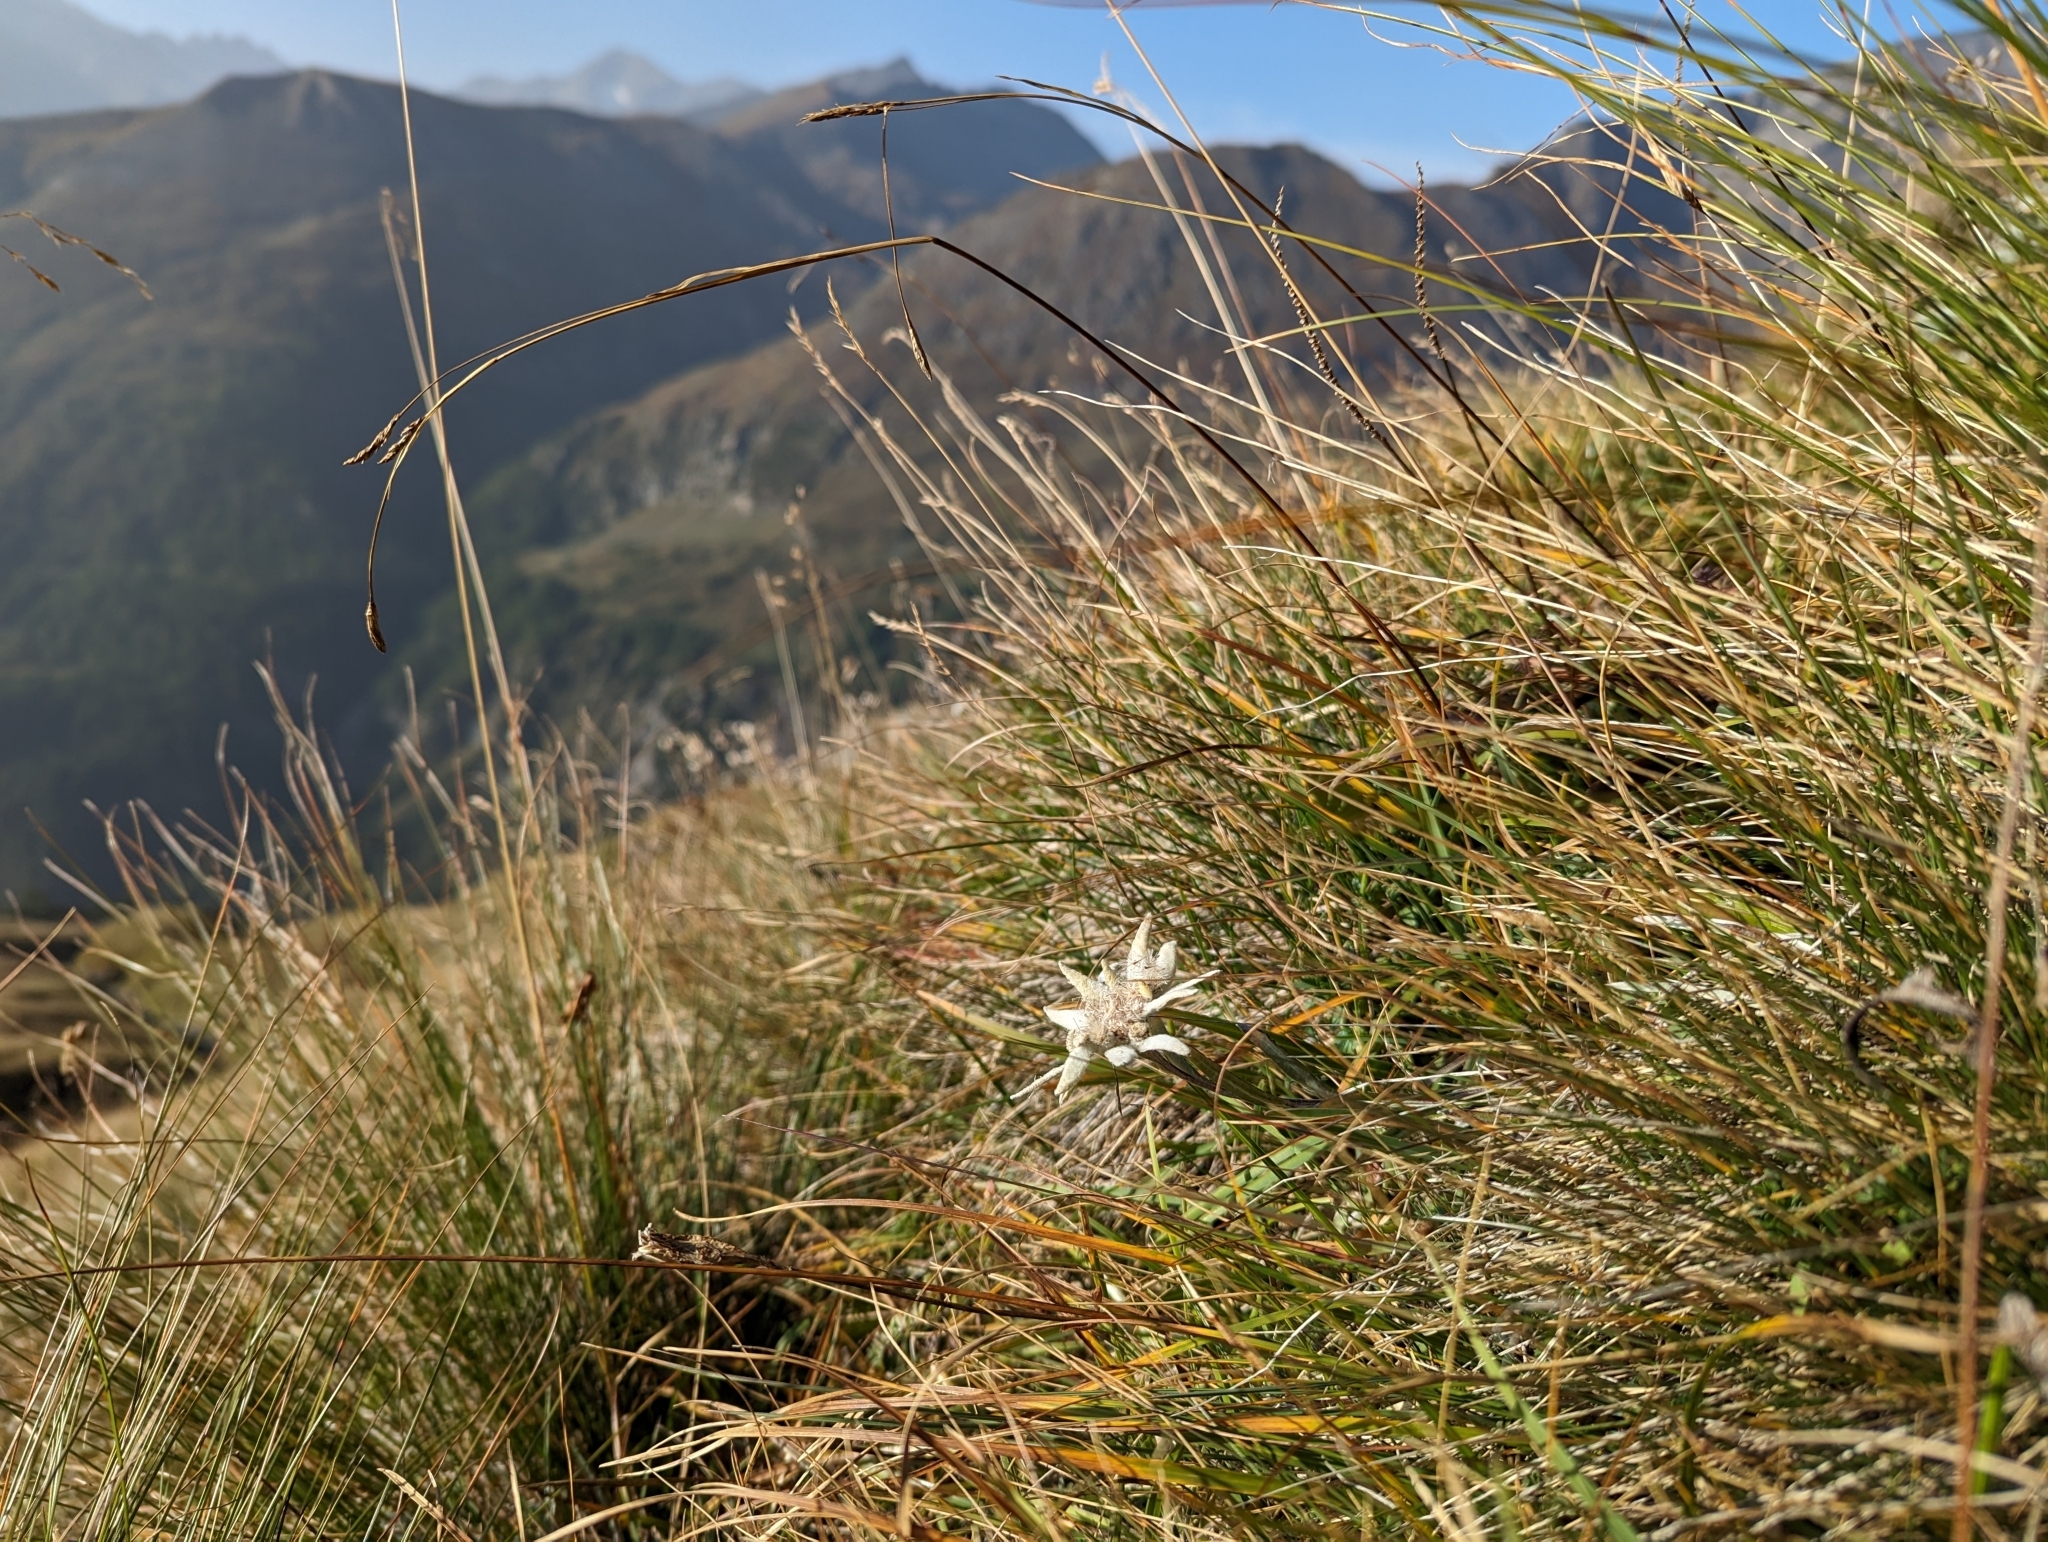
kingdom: Plantae
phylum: Tracheophyta
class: Magnoliopsida
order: Asterales
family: Asteraceae
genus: Leontopodium
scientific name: Leontopodium nivale
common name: Edelweiss
